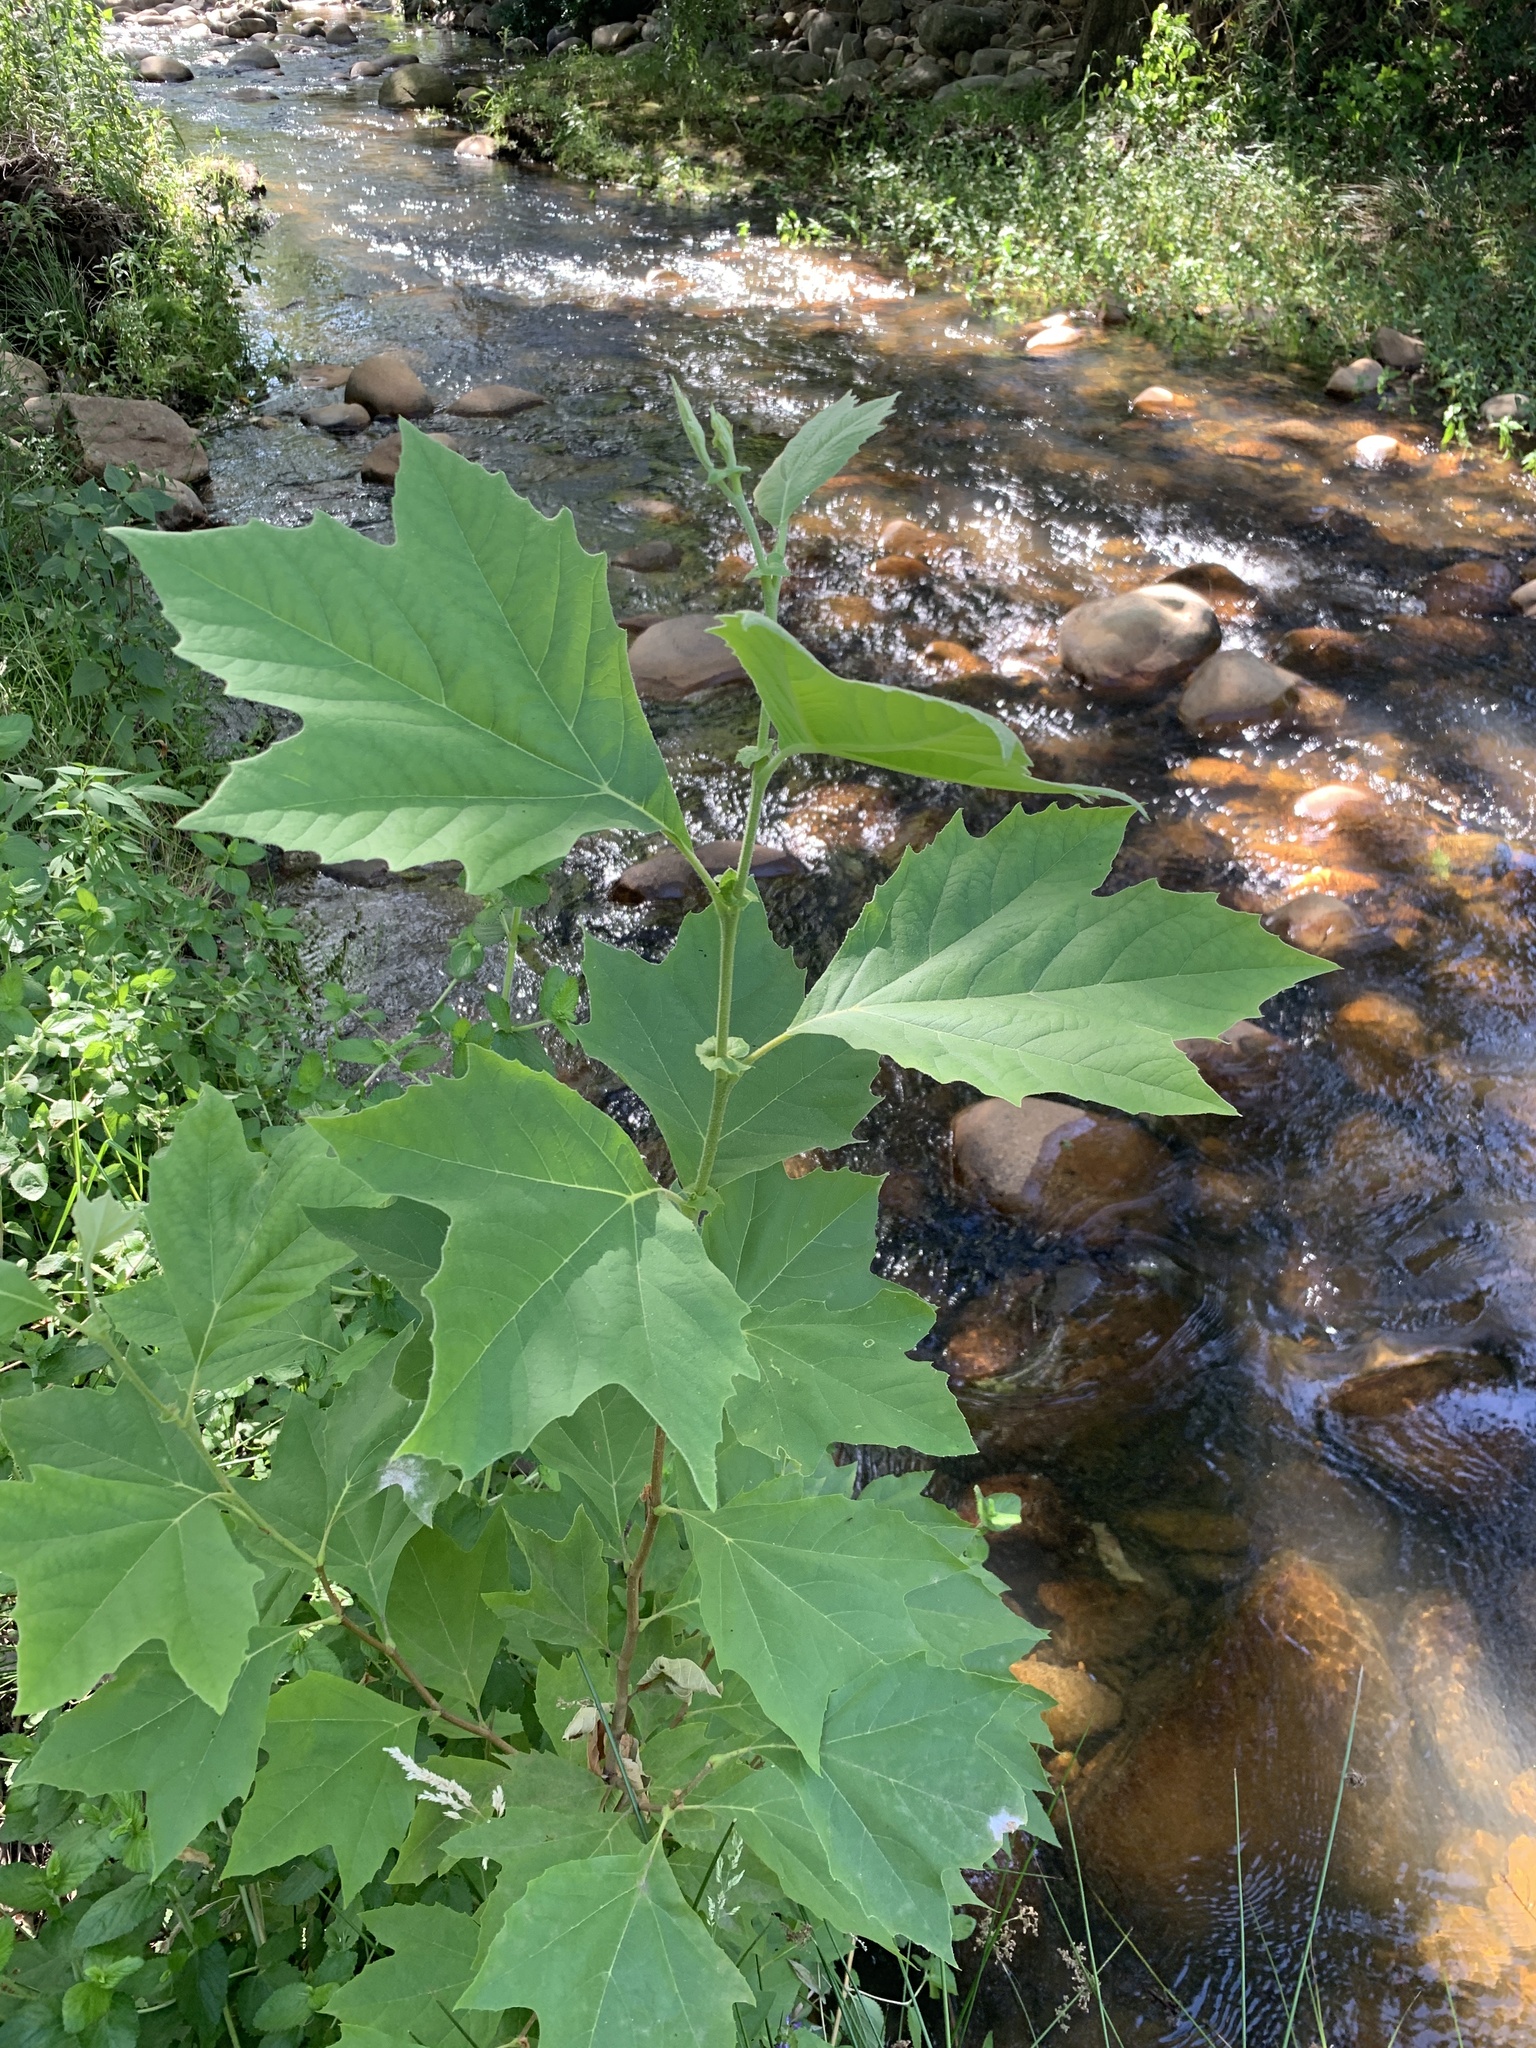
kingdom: Plantae
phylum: Tracheophyta
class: Magnoliopsida
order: Proteales
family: Platanaceae
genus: Platanus
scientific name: Platanus hispanica
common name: London plane
